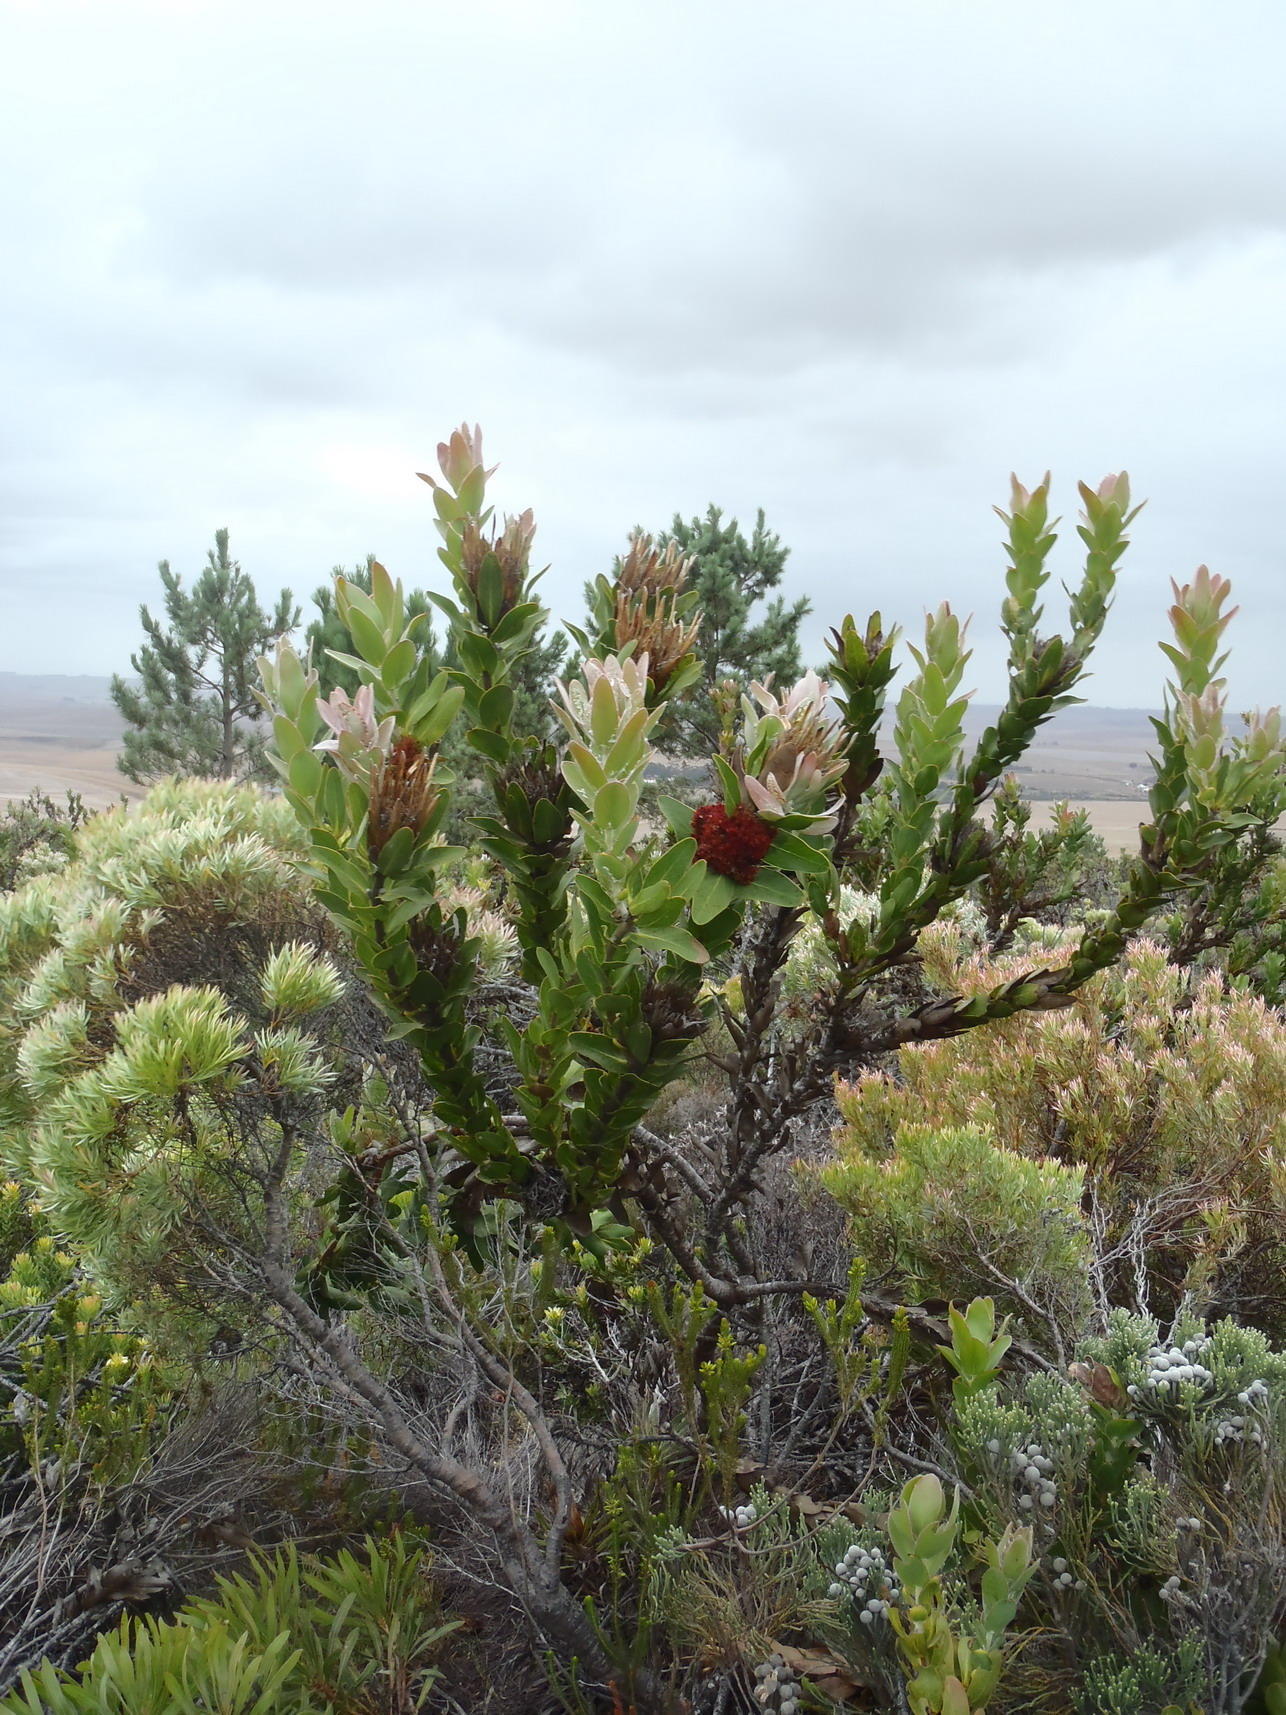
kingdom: Bacteria
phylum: Firmicutes
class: Bacilli
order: Acholeplasmatales
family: Acholeplasmataceae
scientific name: Acholeplasmataceae
